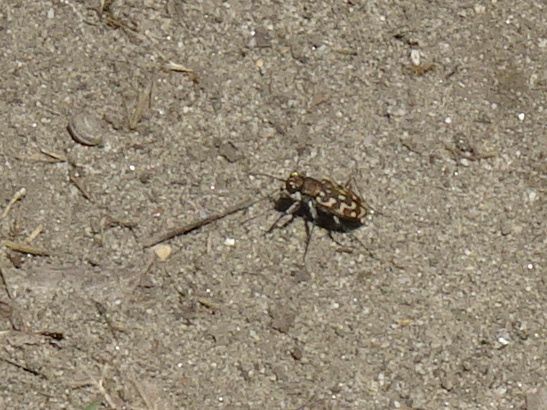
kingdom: Animalia
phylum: Arthropoda
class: Insecta
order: Coleoptera
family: Carabidae
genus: Lophyra
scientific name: Lophyra flexuosa
